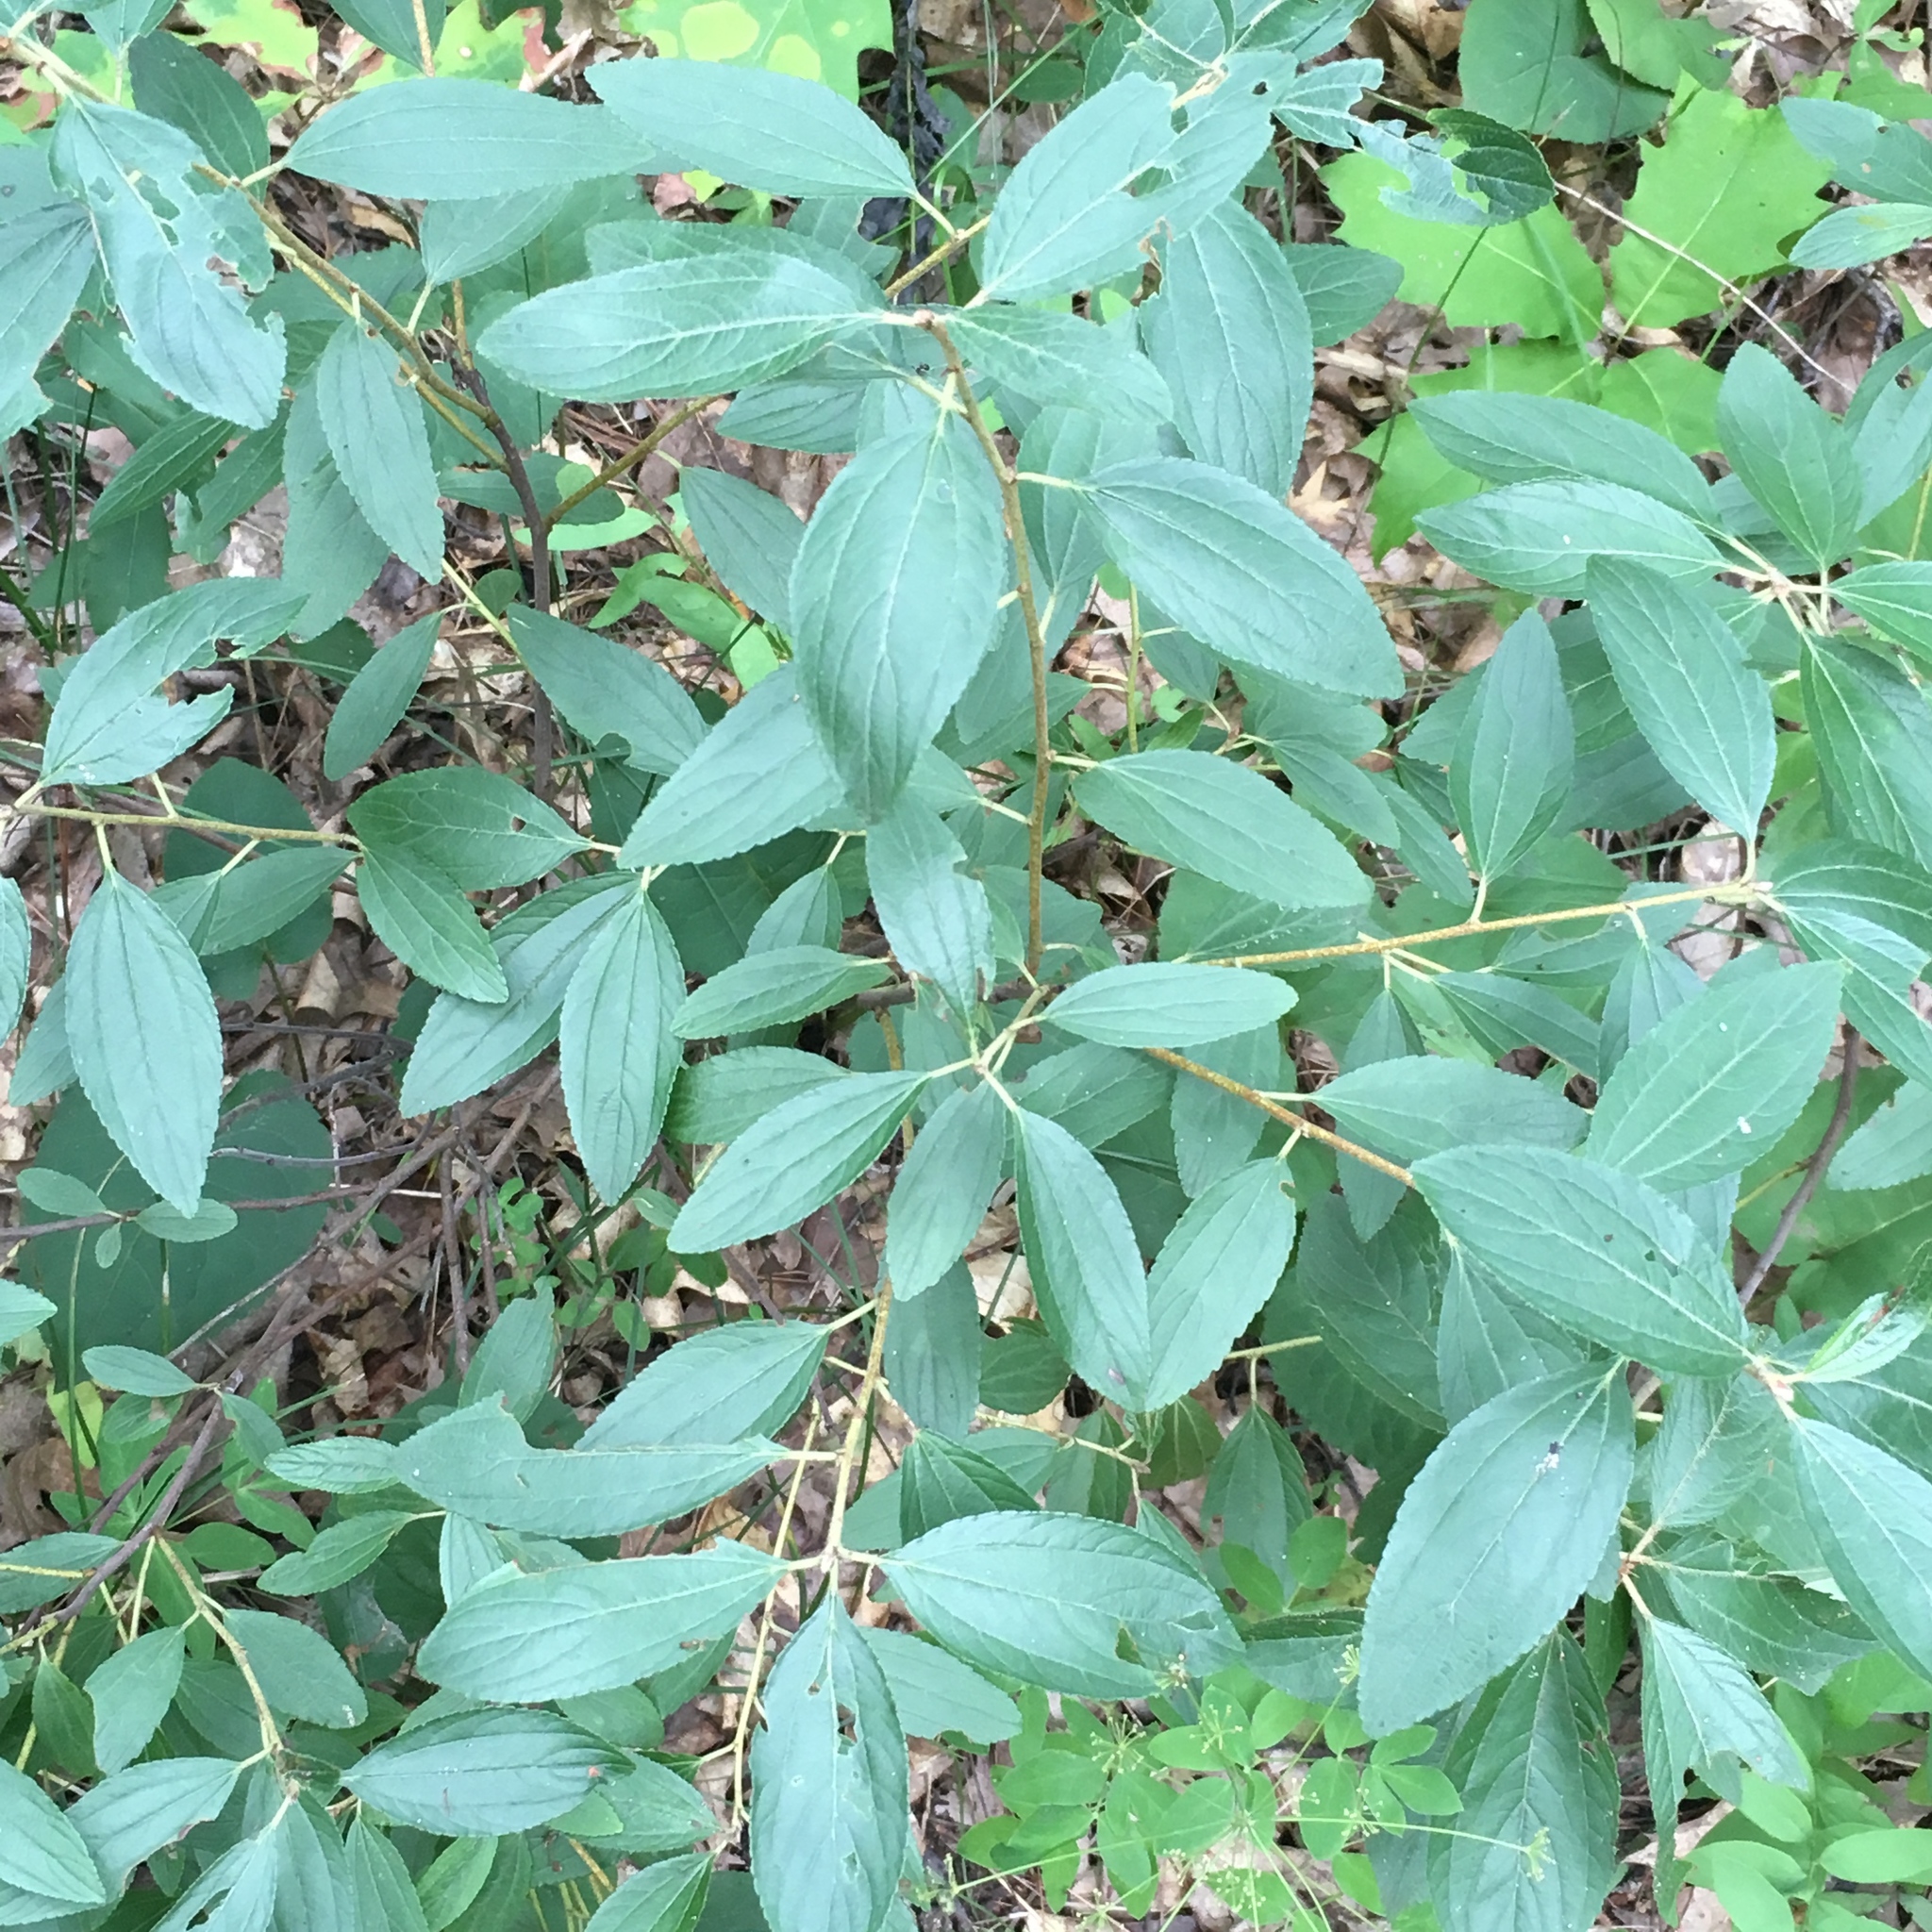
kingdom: Plantae
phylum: Tracheophyta
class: Magnoliopsida
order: Rosales
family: Rhamnaceae
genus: Ceanothus
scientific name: Ceanothus herbaceus
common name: Inland ceanothus
